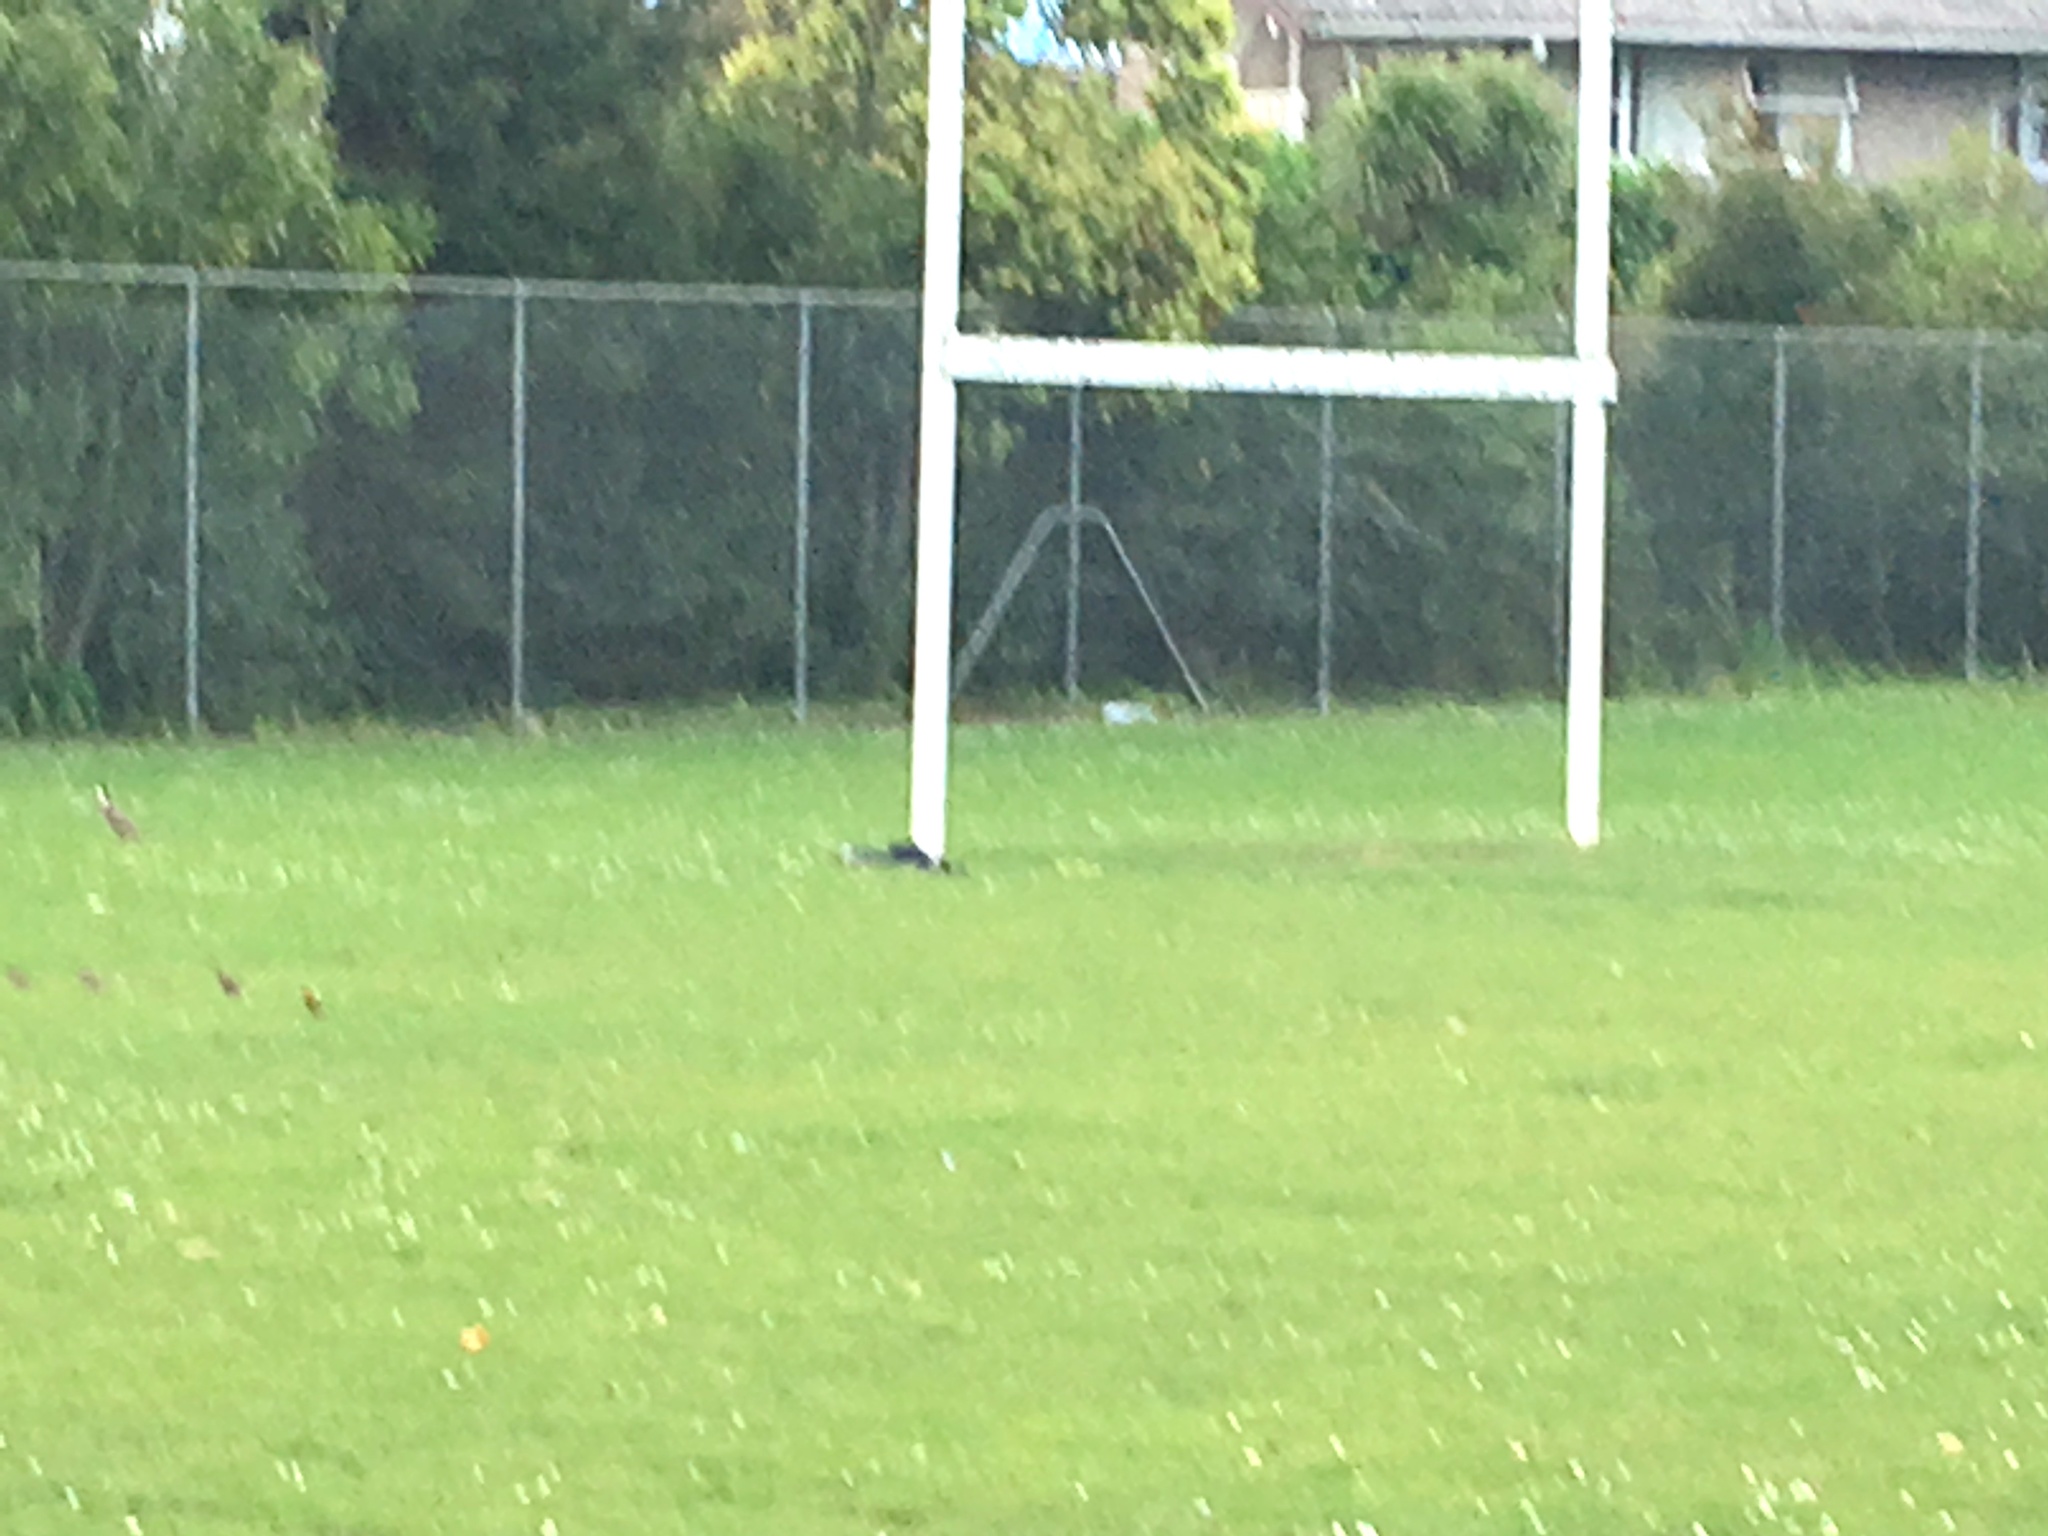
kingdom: Animalia
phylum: Chordata
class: Aves
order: Charadriiformes
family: Charadriidae
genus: Vanellus
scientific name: Vanellus miles
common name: Masked lapwing
